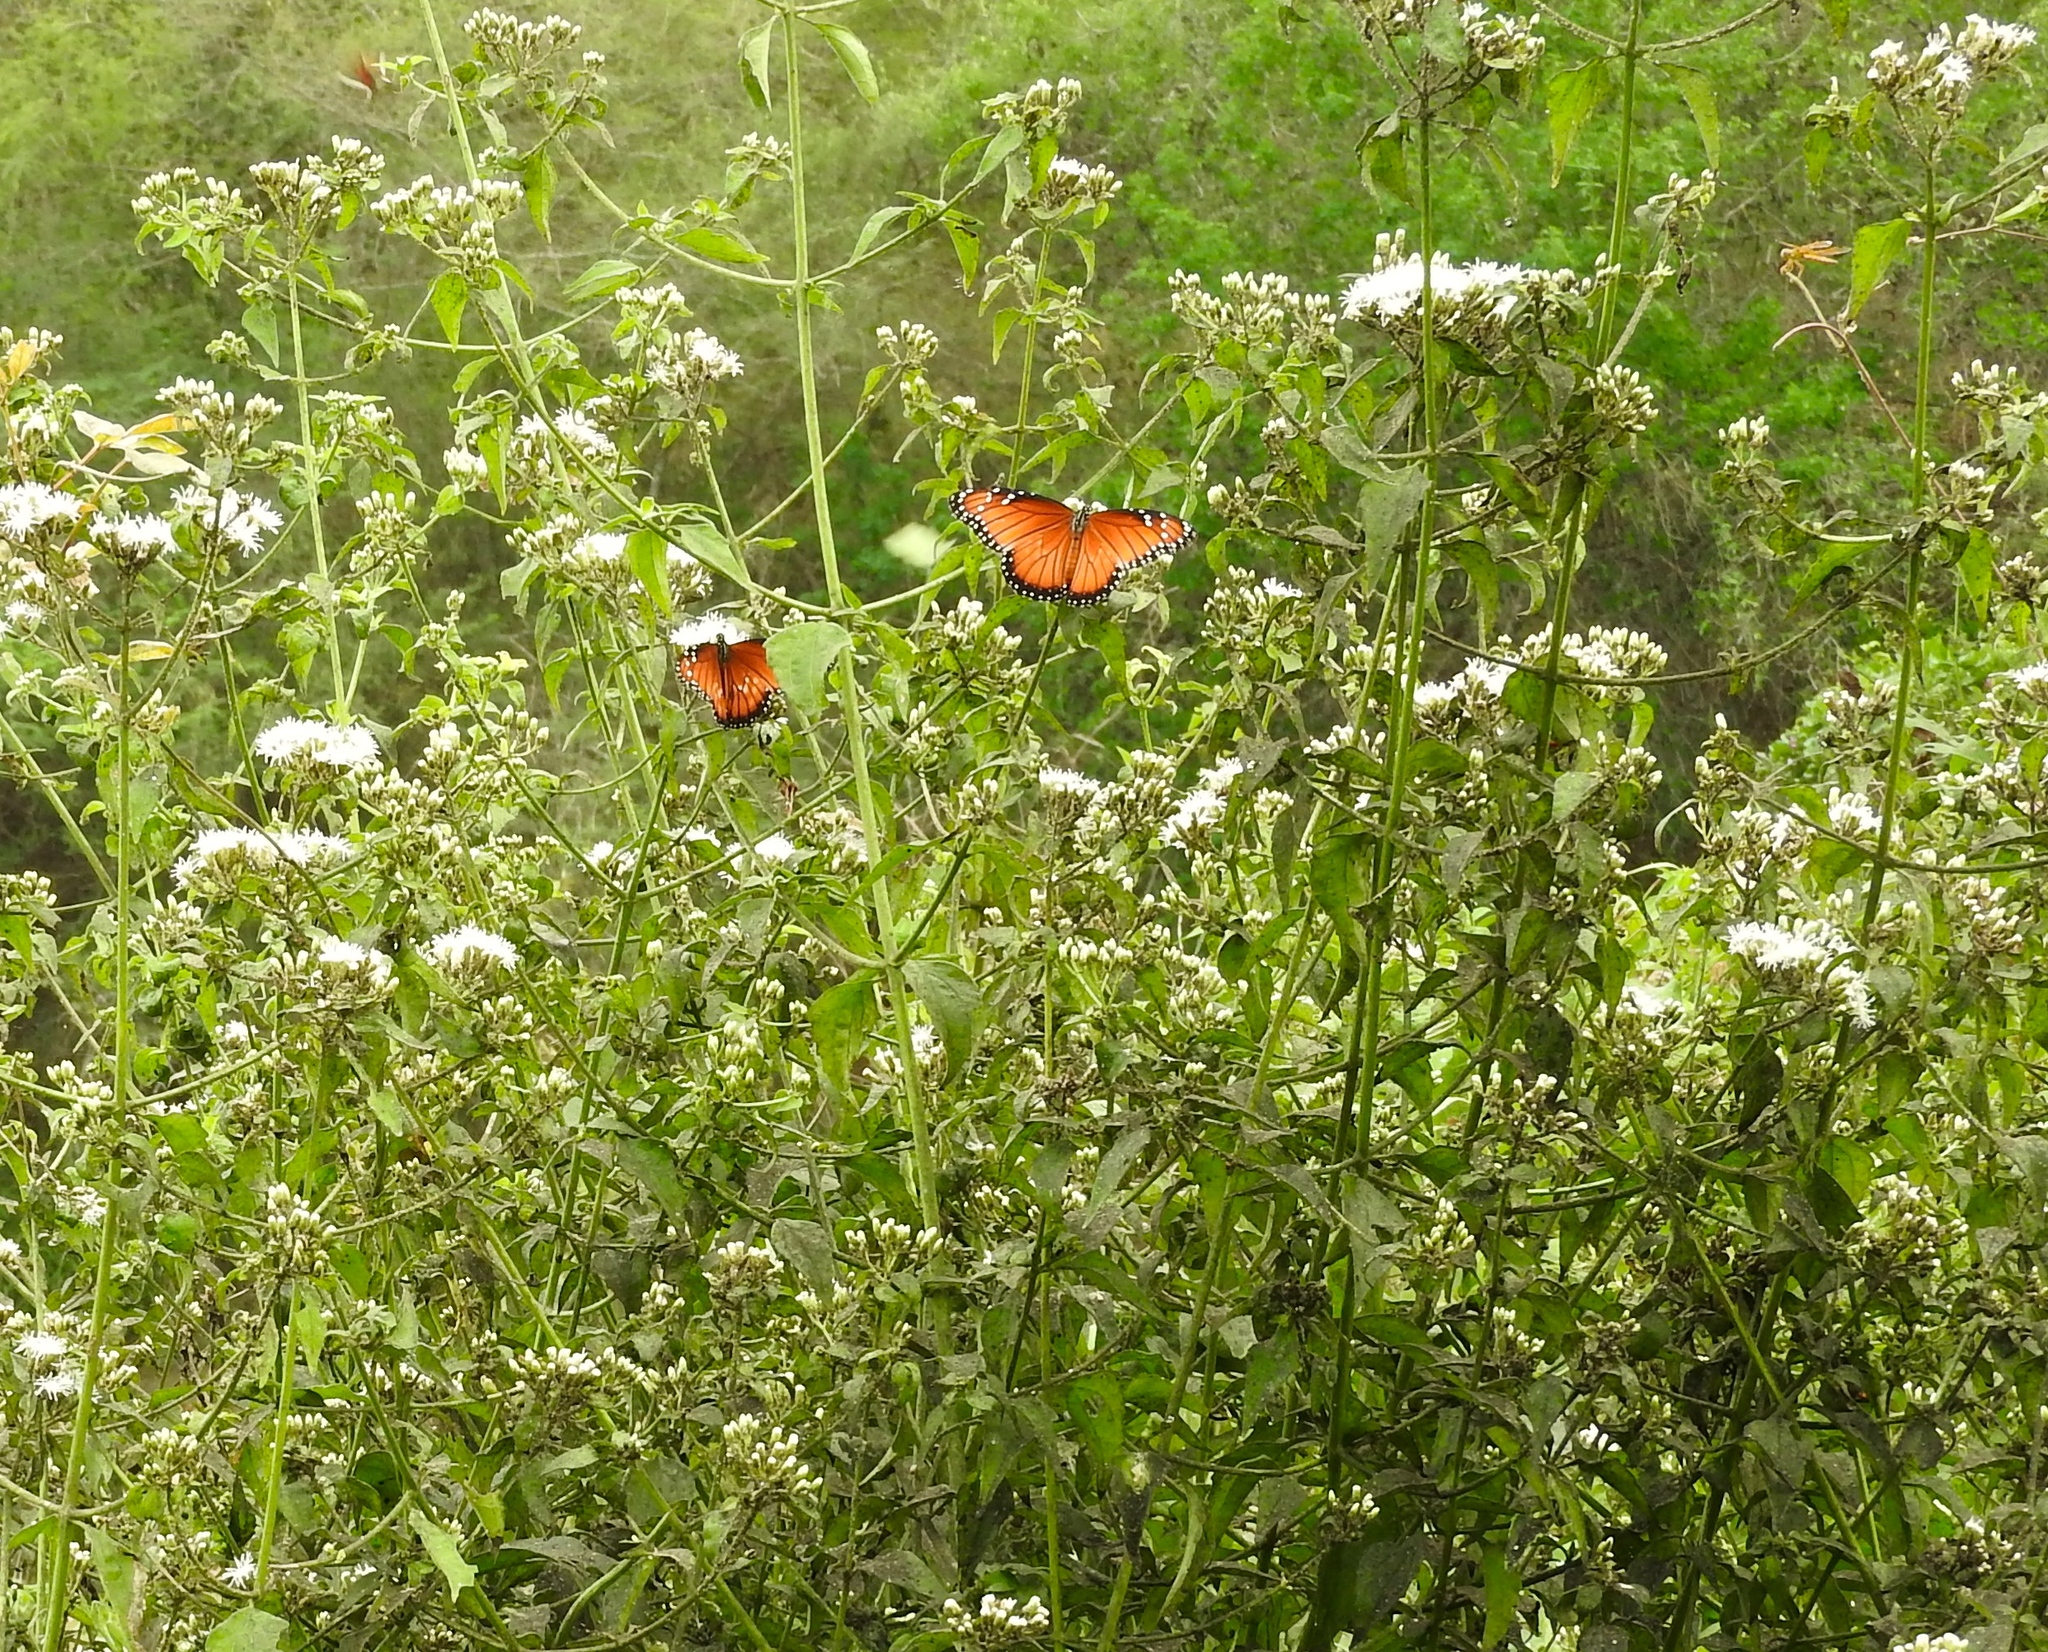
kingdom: Plantae
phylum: Tracheophyta
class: Magnoliopsida
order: Asterales
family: Asteraceae
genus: Chromolaena
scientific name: Chromolaena odorata
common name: Siamweed
